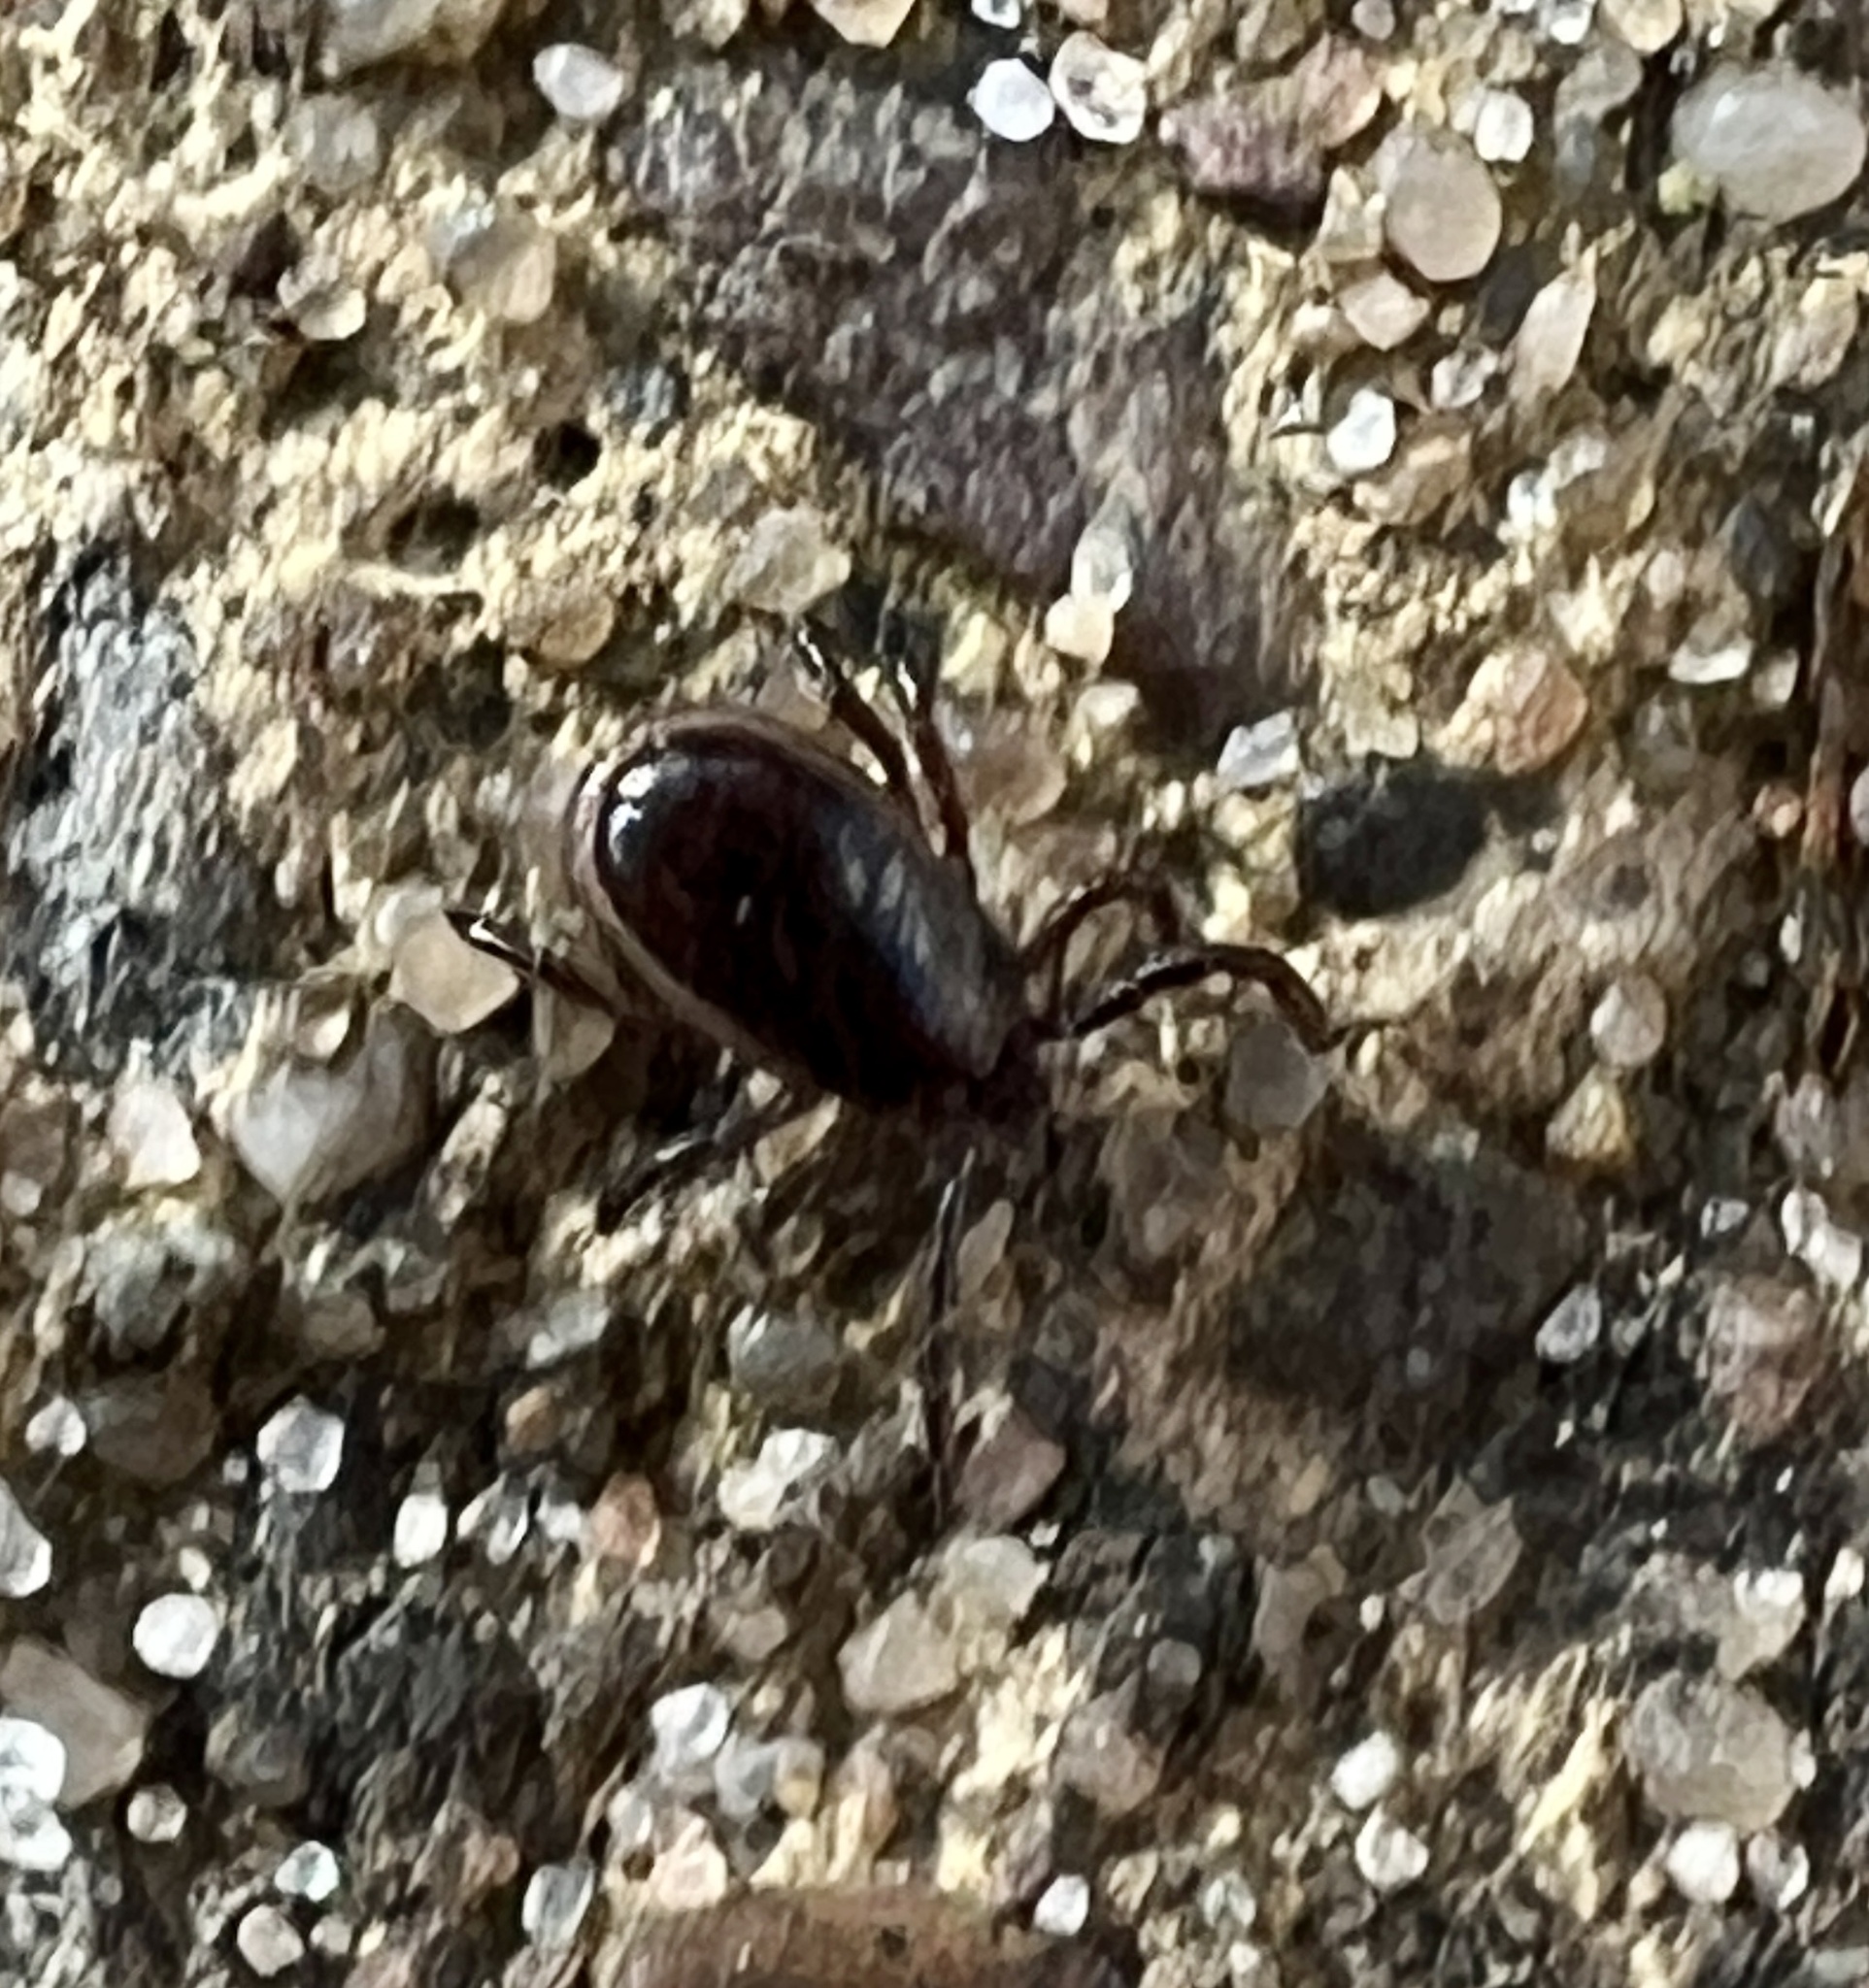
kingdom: Animalia
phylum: Arthropoda
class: Arachnida
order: Ixodida
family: Ixodidae
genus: Ixodes
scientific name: Ixodes ricinus
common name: Castor bean tick
